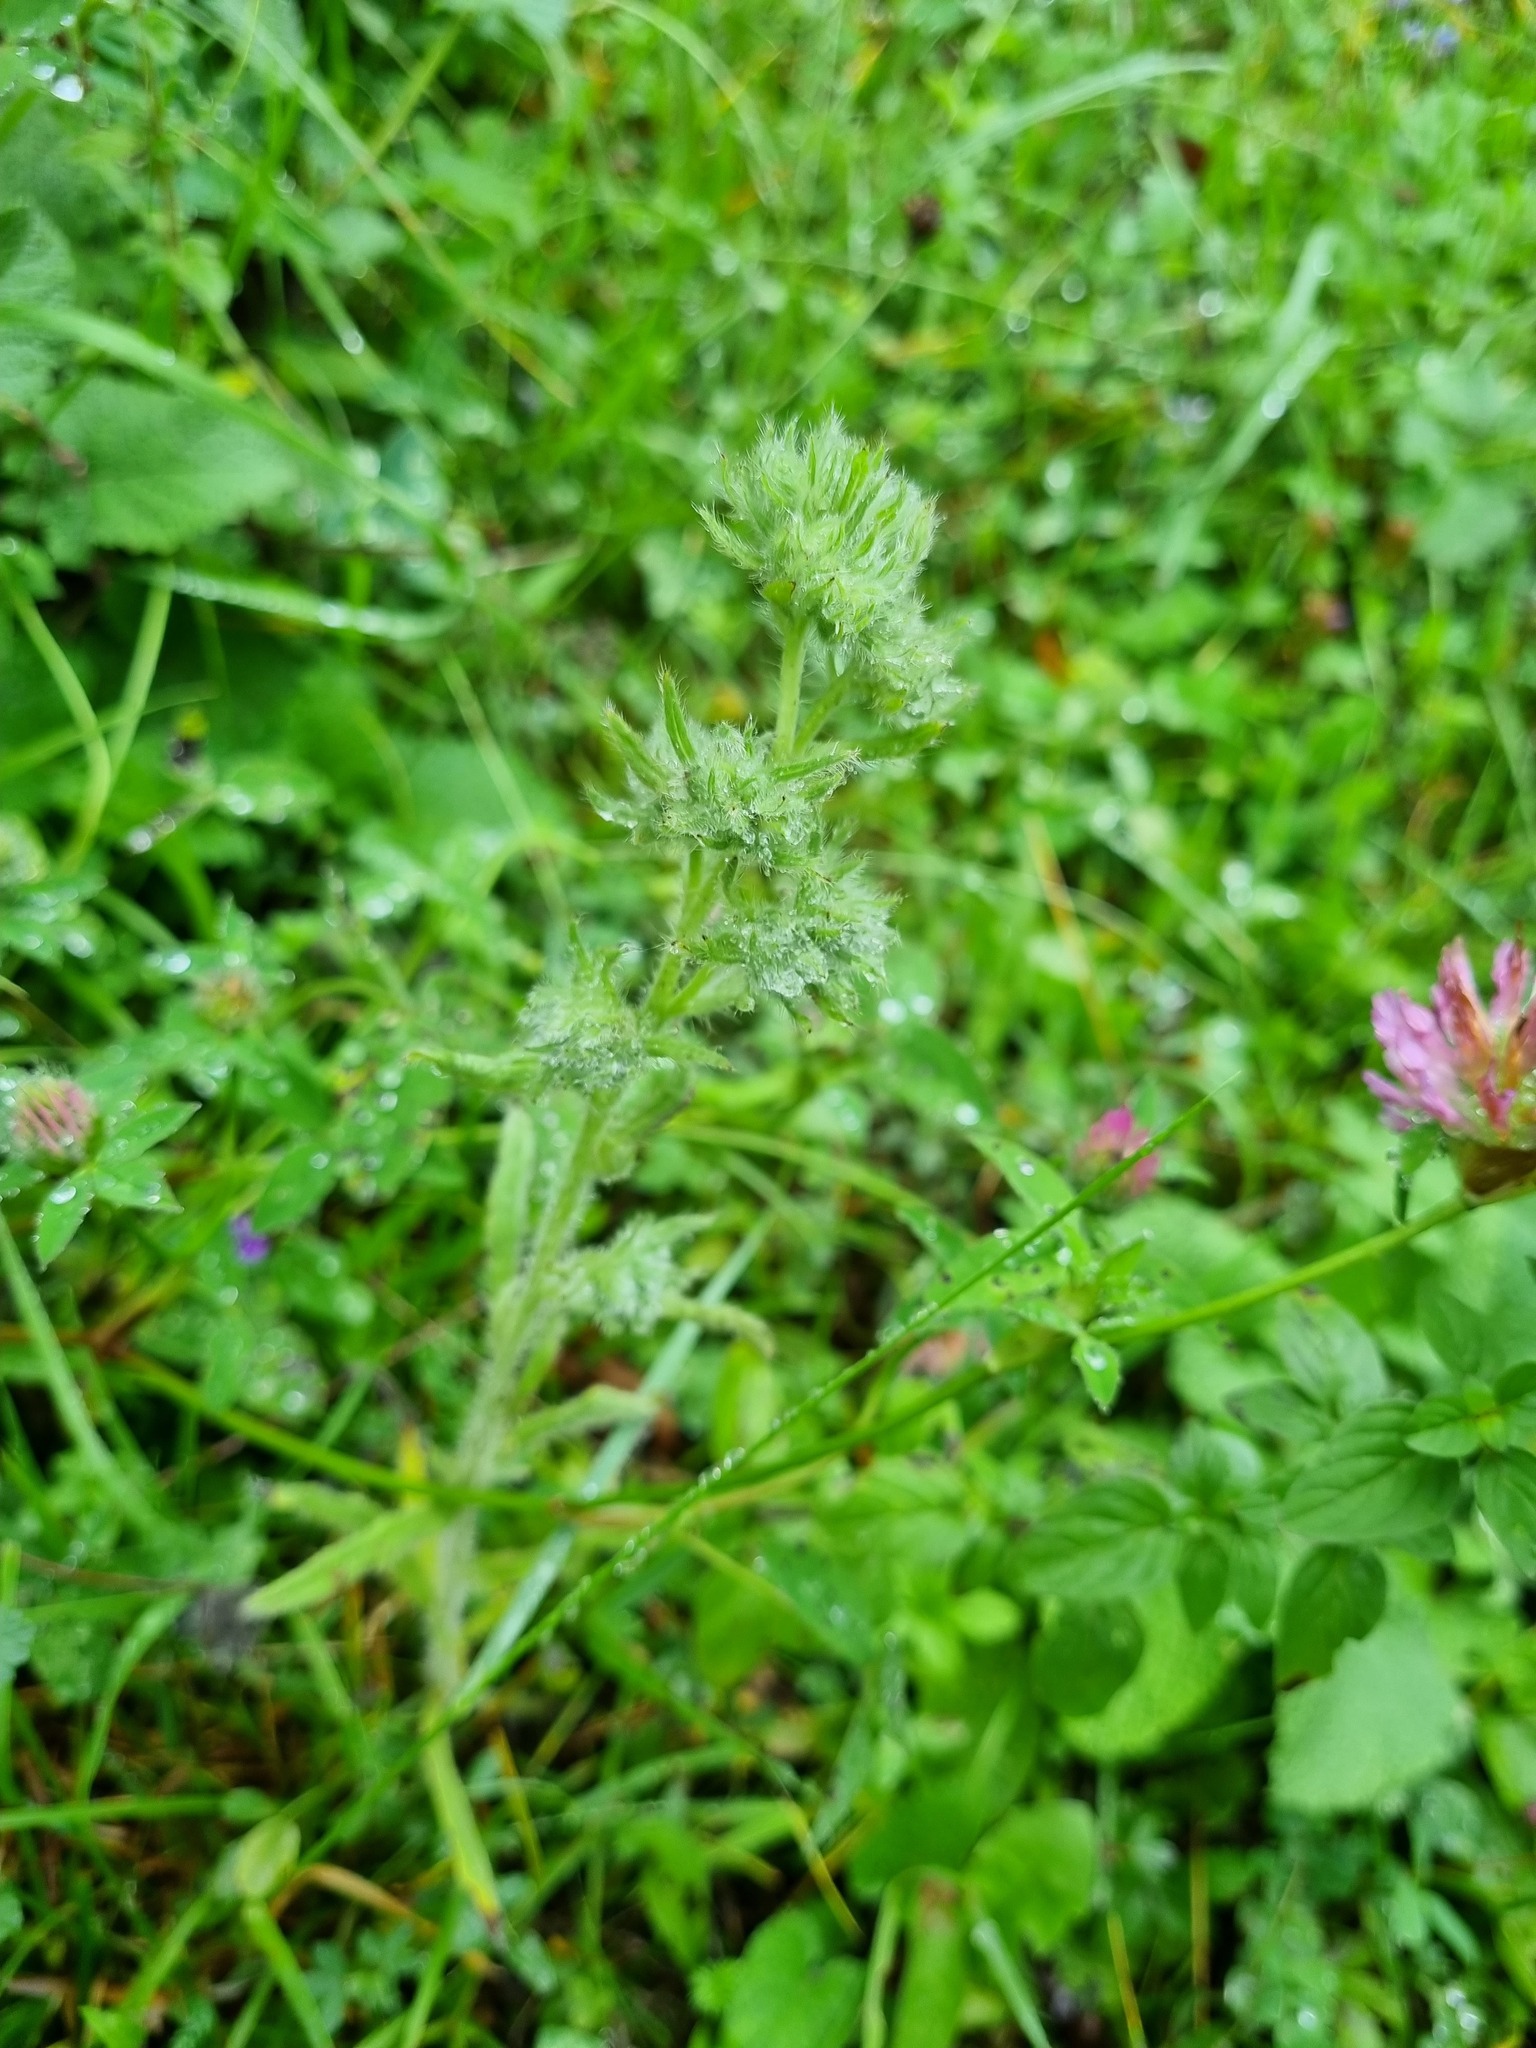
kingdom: Animalia
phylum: Arthropoda
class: Arachnida
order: Trombidiformes
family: Eriophyidae
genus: Aceria
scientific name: Aceria echii
